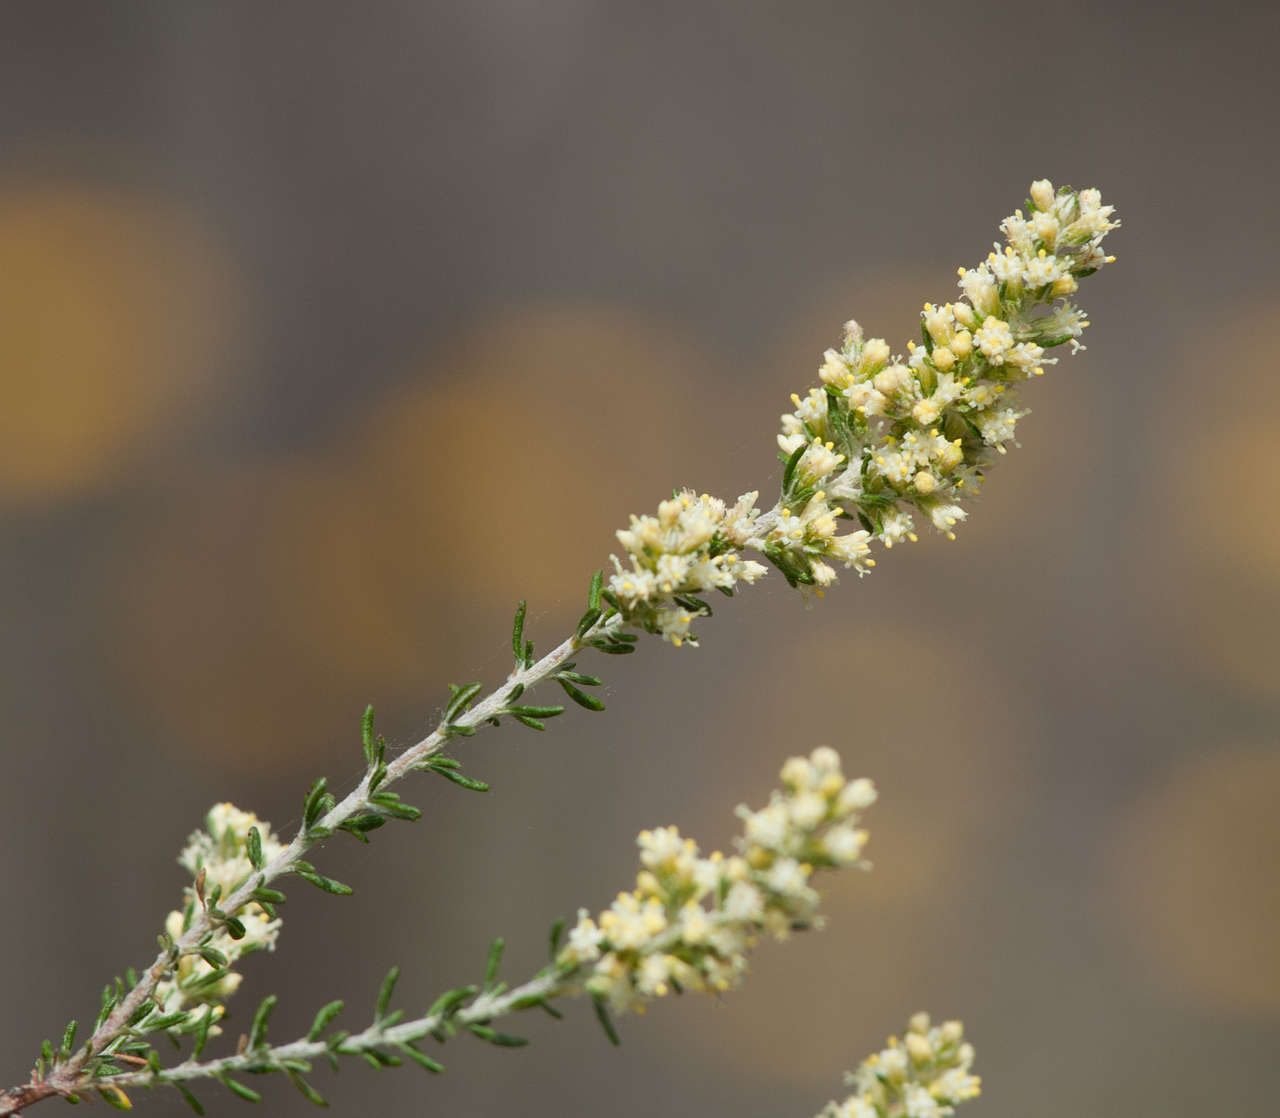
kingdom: Plantae
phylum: Tracheophyta
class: Magnoliopsida
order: Asterales
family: Asteraceae
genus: Olearia
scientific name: Olearia tubuliflora
